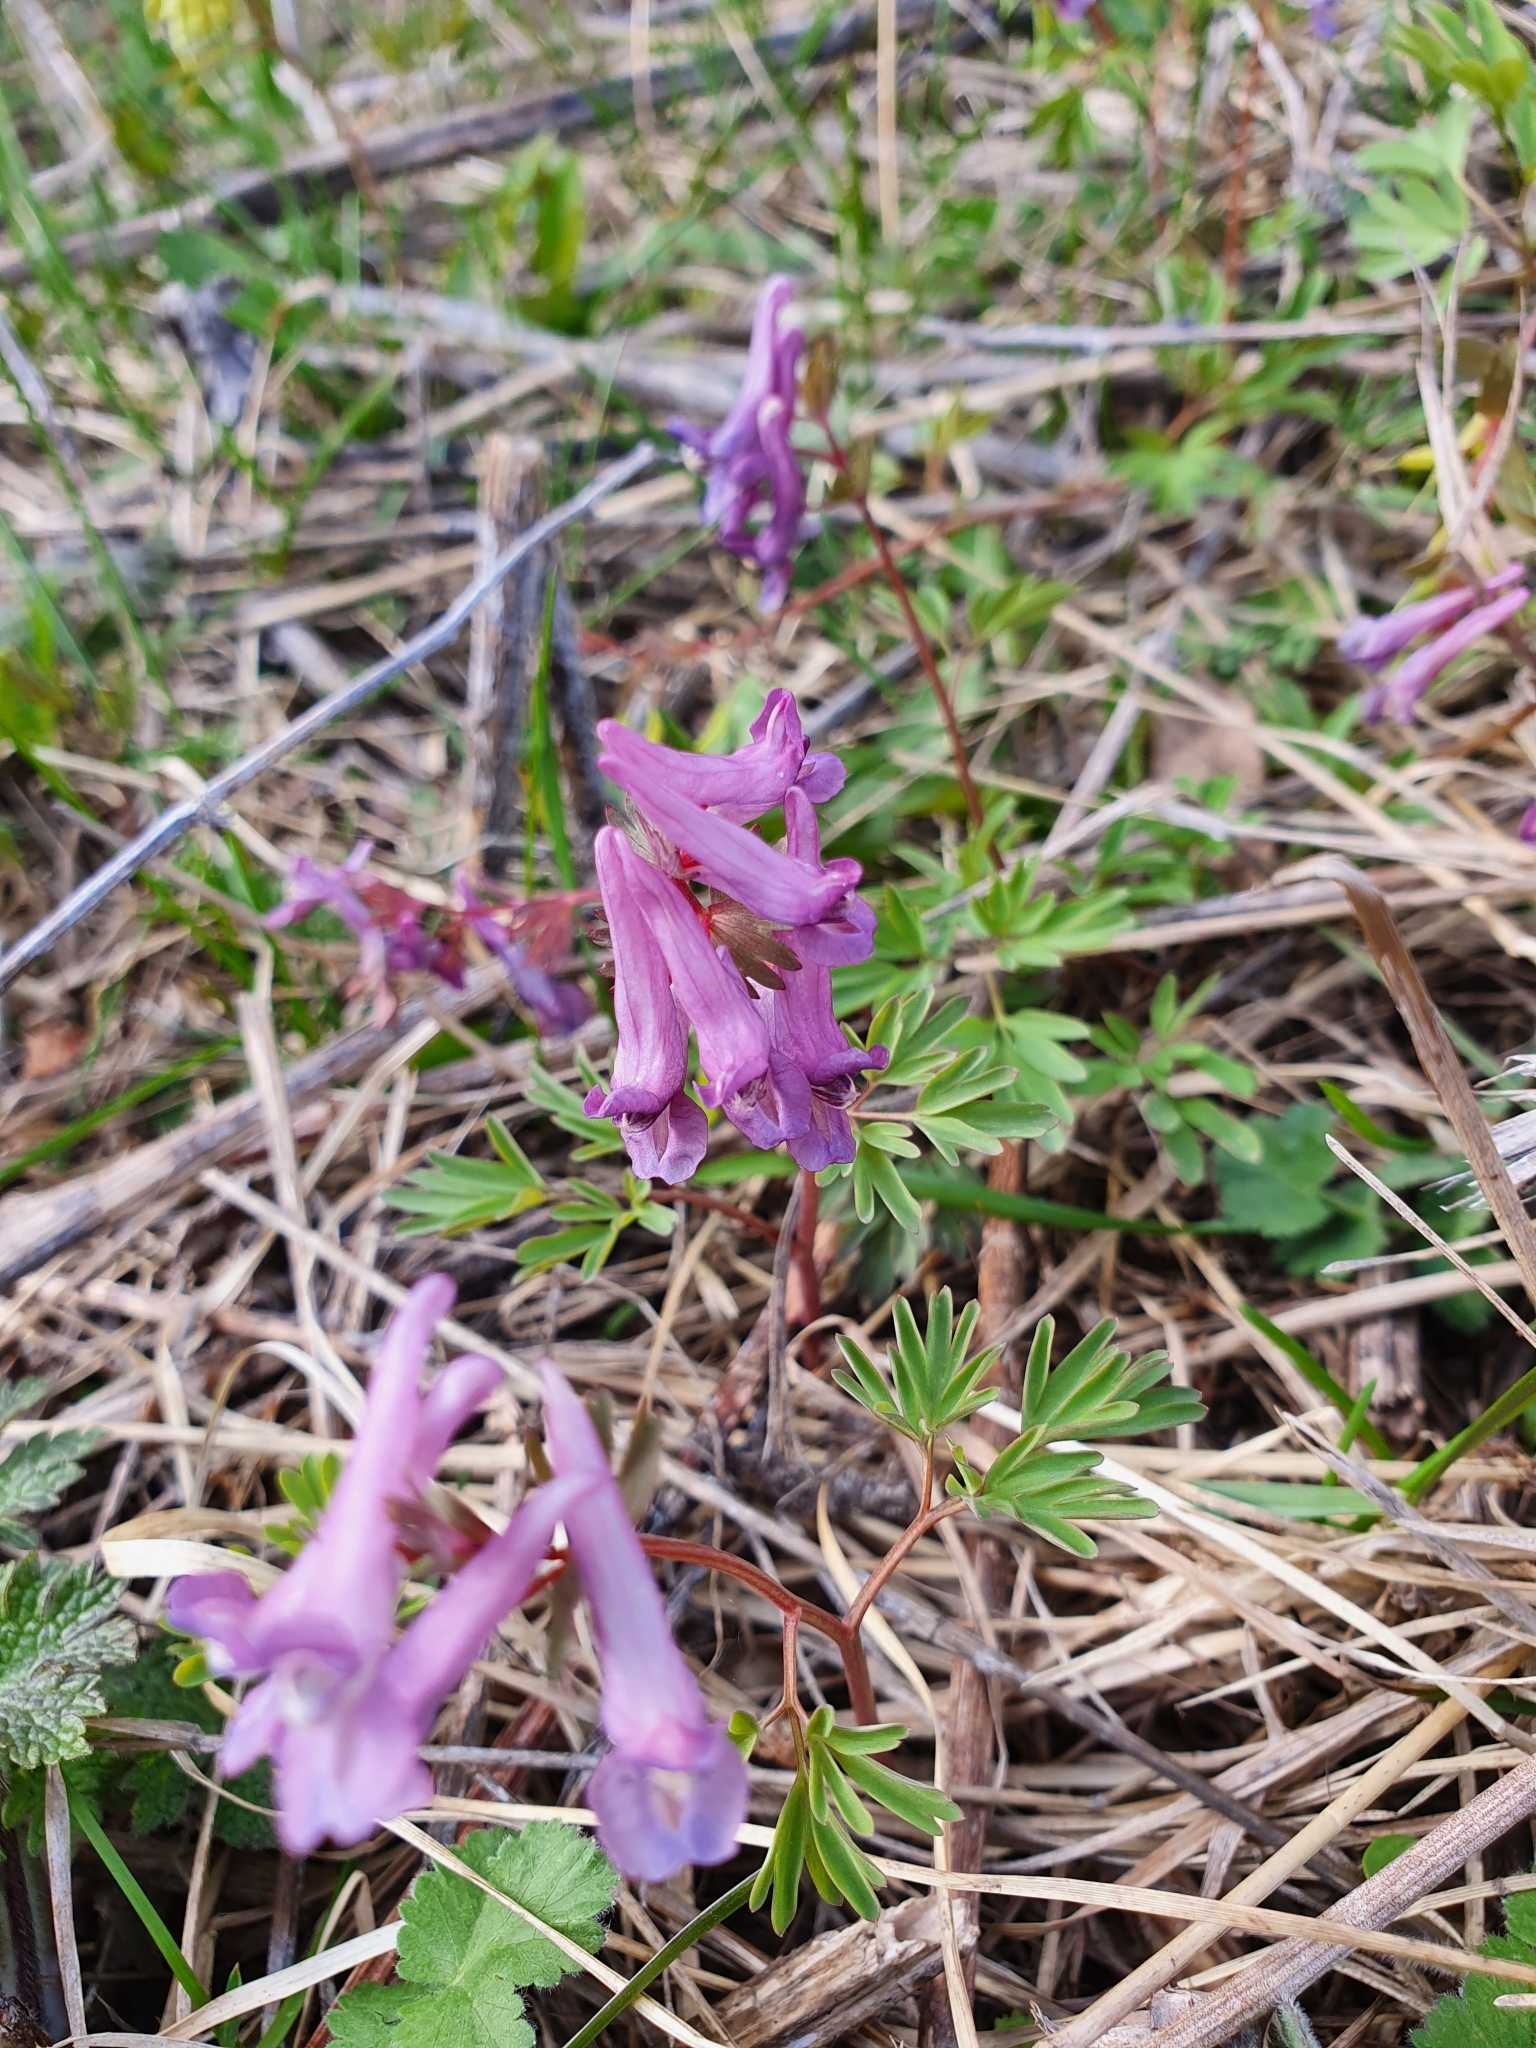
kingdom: Plantae
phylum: Tracheophyta
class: Magnoliopsida
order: Ranunculales
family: Papaveraceae
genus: Corydalis
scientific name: Corydalis solida
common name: Bird-in-a-bush
